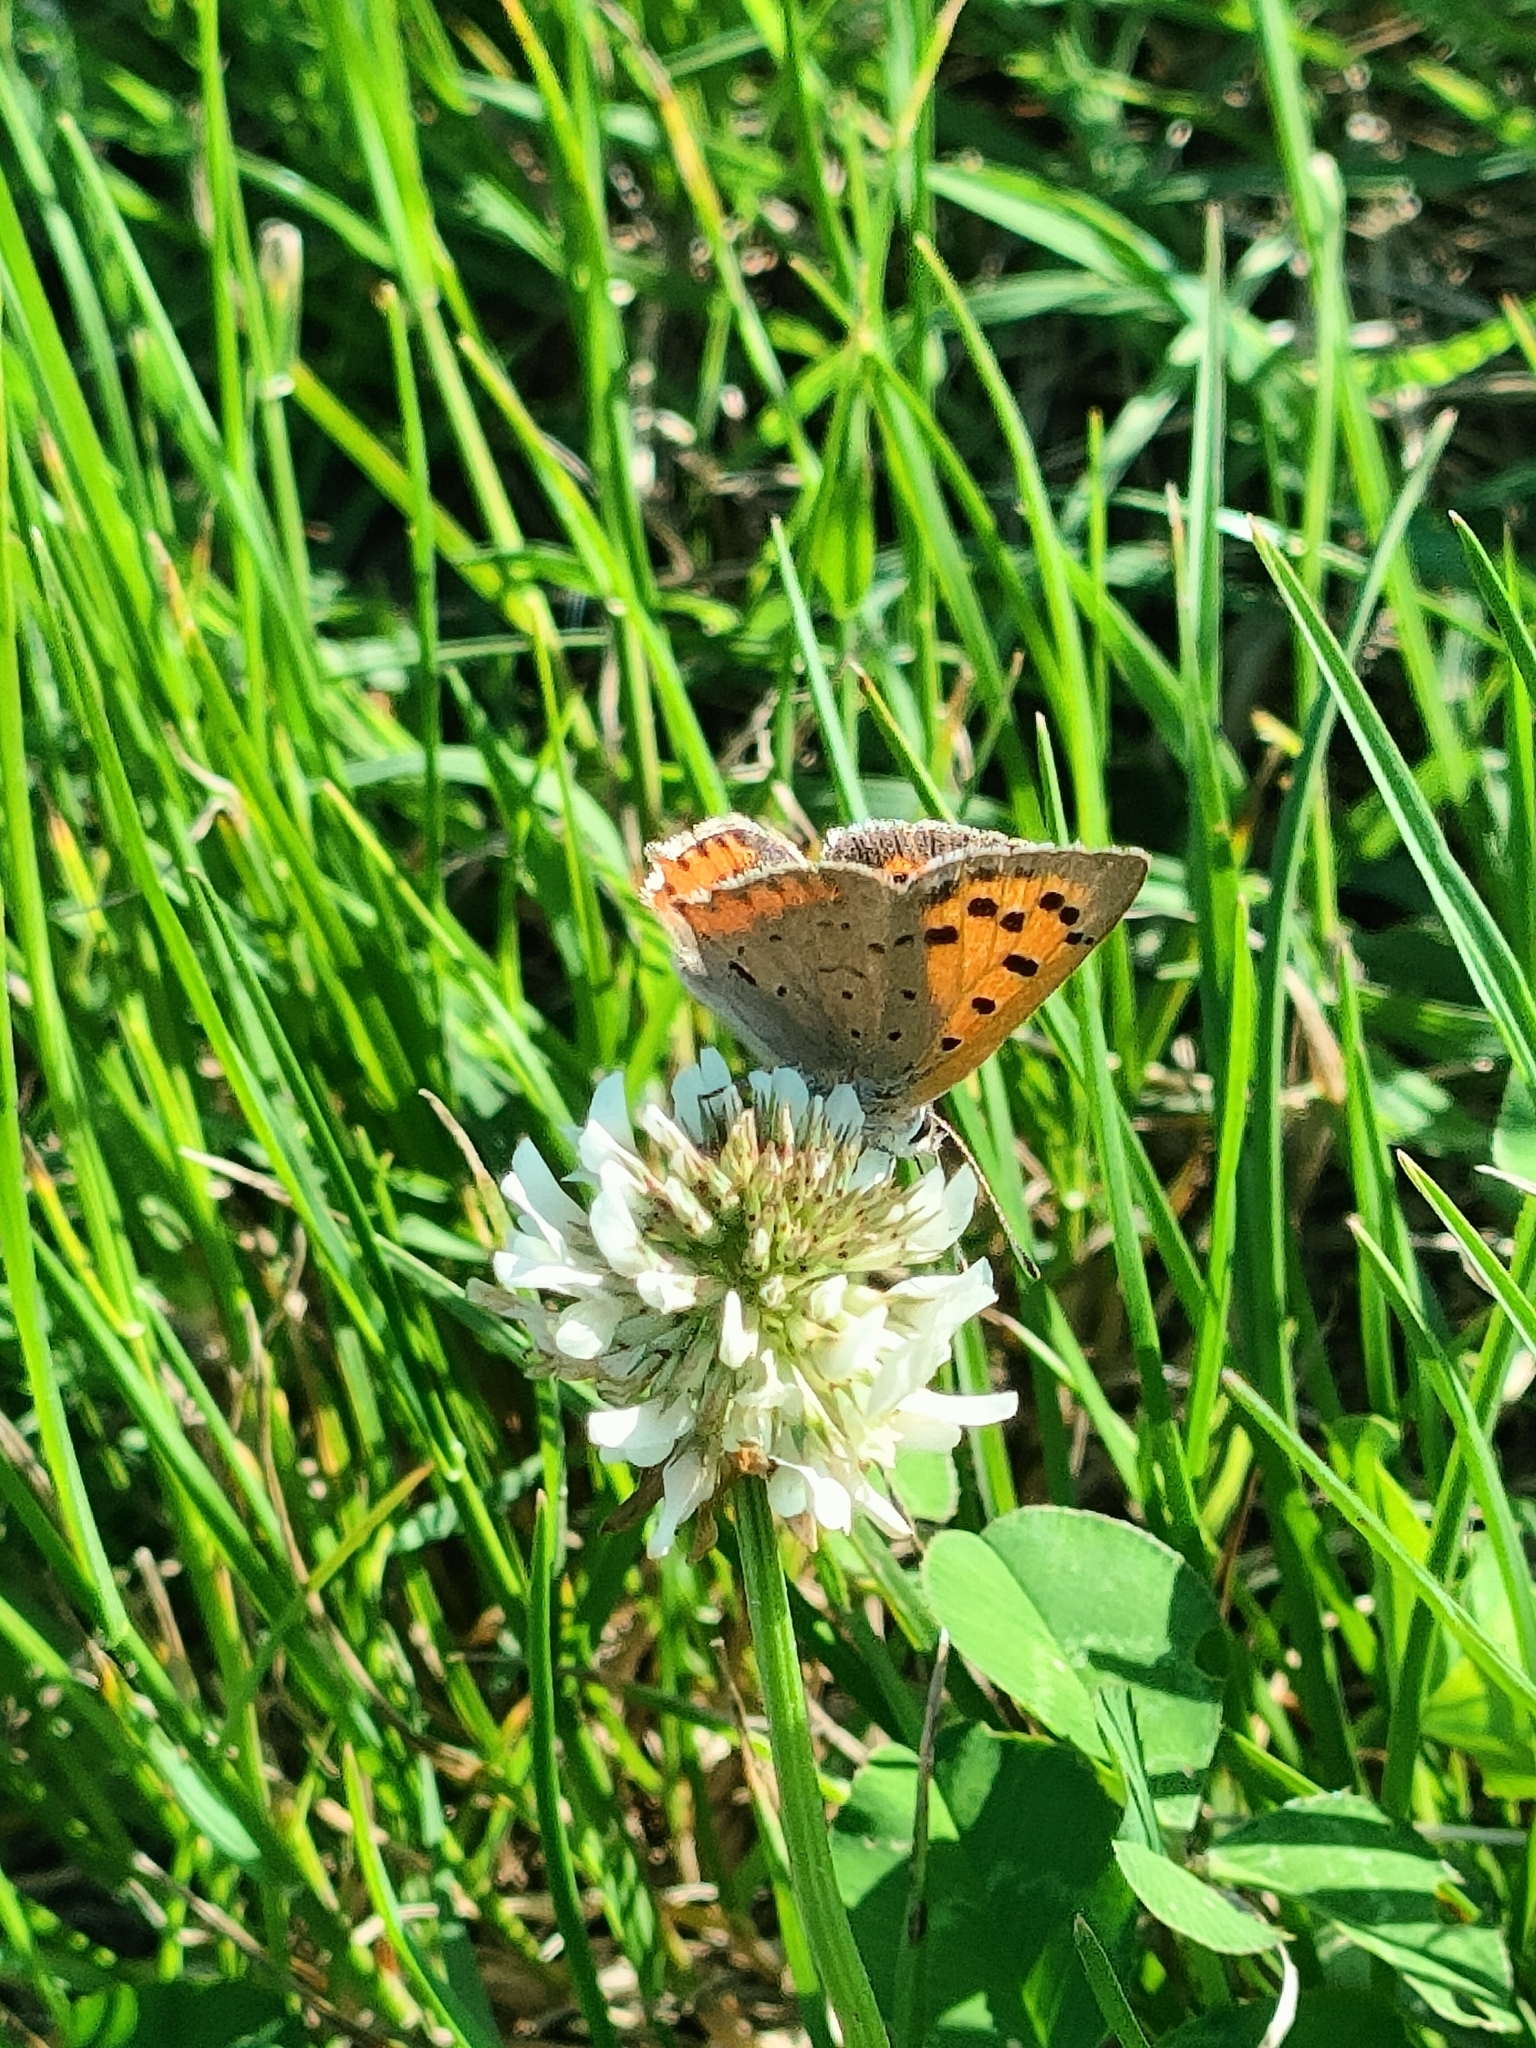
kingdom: Animalia
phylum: Arthropoda
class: Insecta
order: Lepidoptera
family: Lycaenidae
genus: Lycaena
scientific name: Lycaena phlaeas
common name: Small copper
